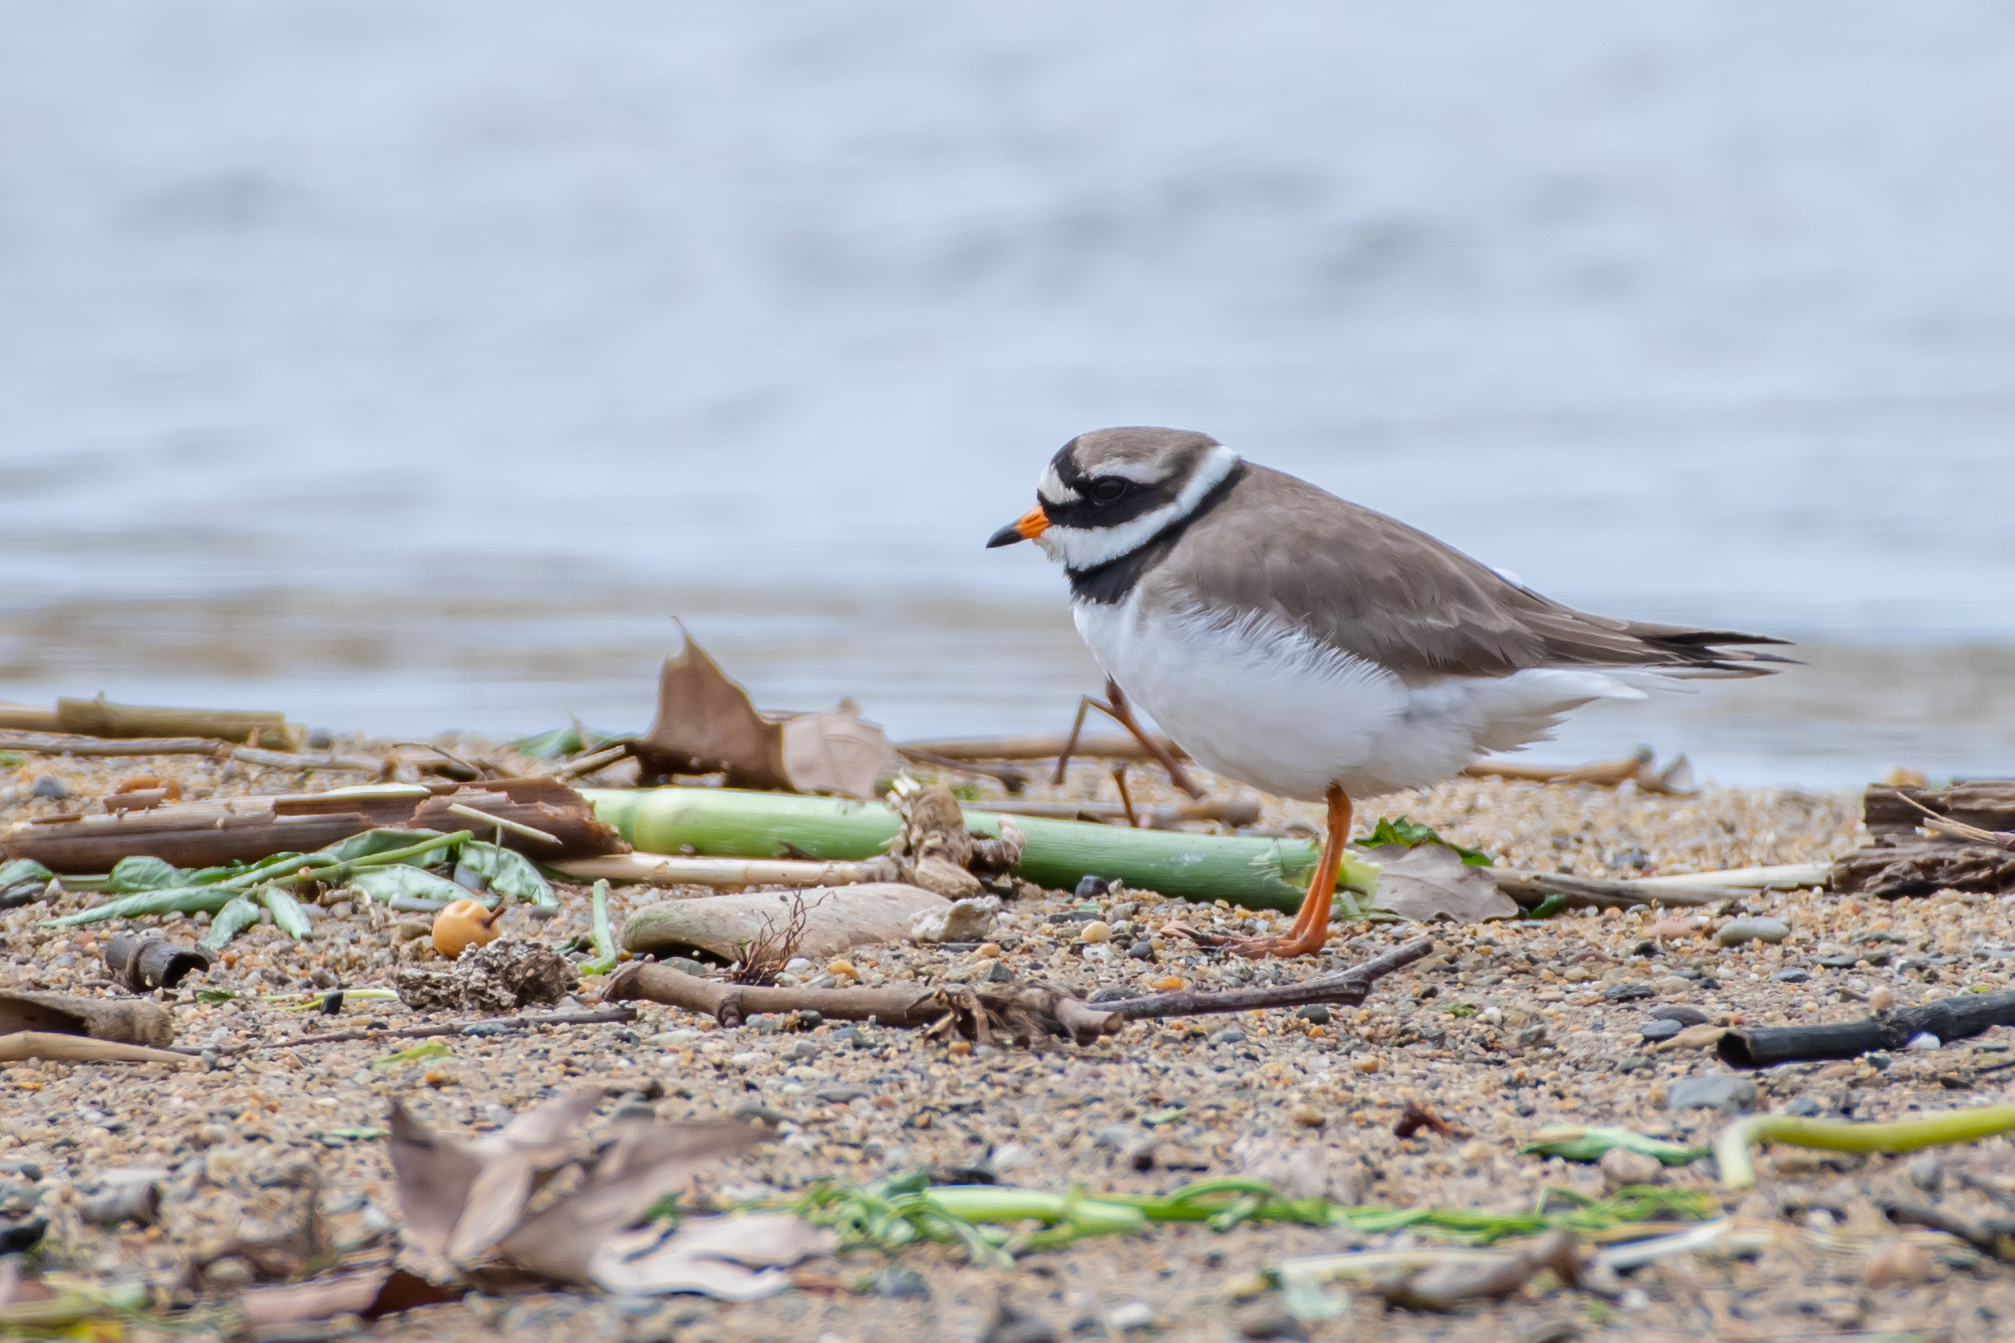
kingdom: Animalia
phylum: Chordata
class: Aves
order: Charadriiformes
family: Charadriidae
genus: Charadrius
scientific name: Charadrius hiaticula
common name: Common ringed plover
